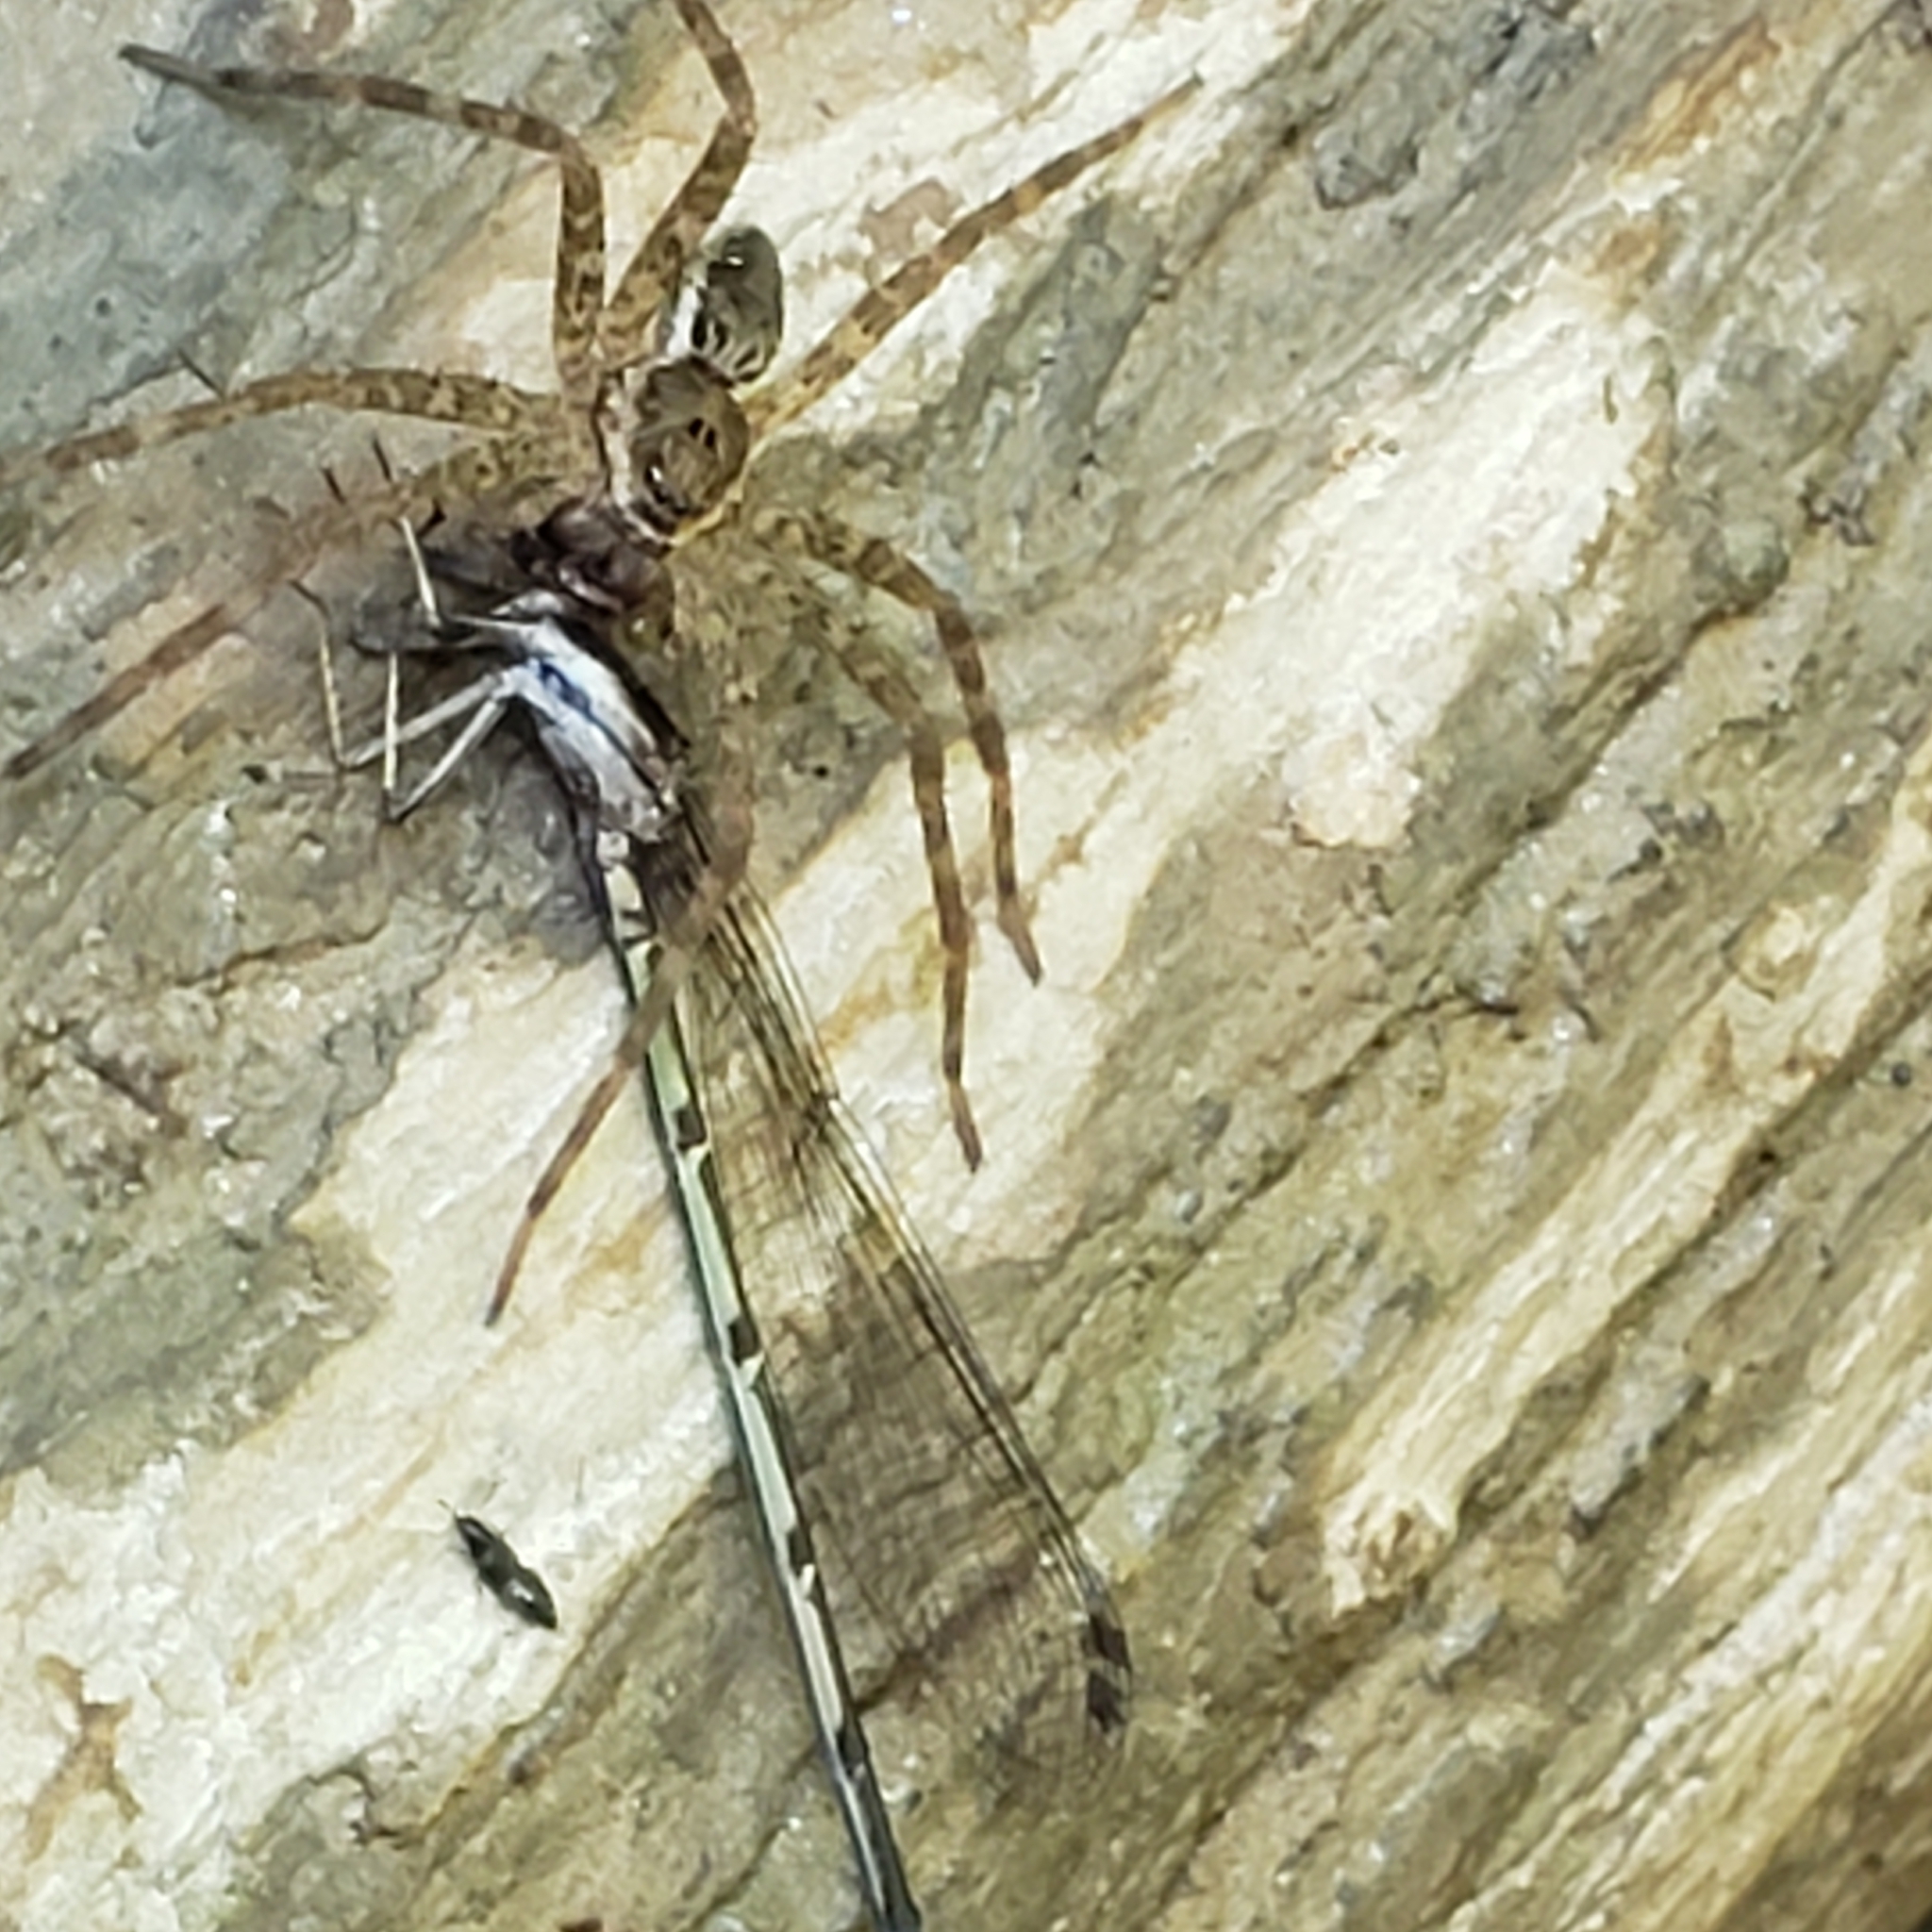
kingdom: Animalia
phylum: Arthropoda
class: Arachnida
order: Araneae
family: Pisauridae
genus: Dolomedes
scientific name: Dolomedes vittatus
